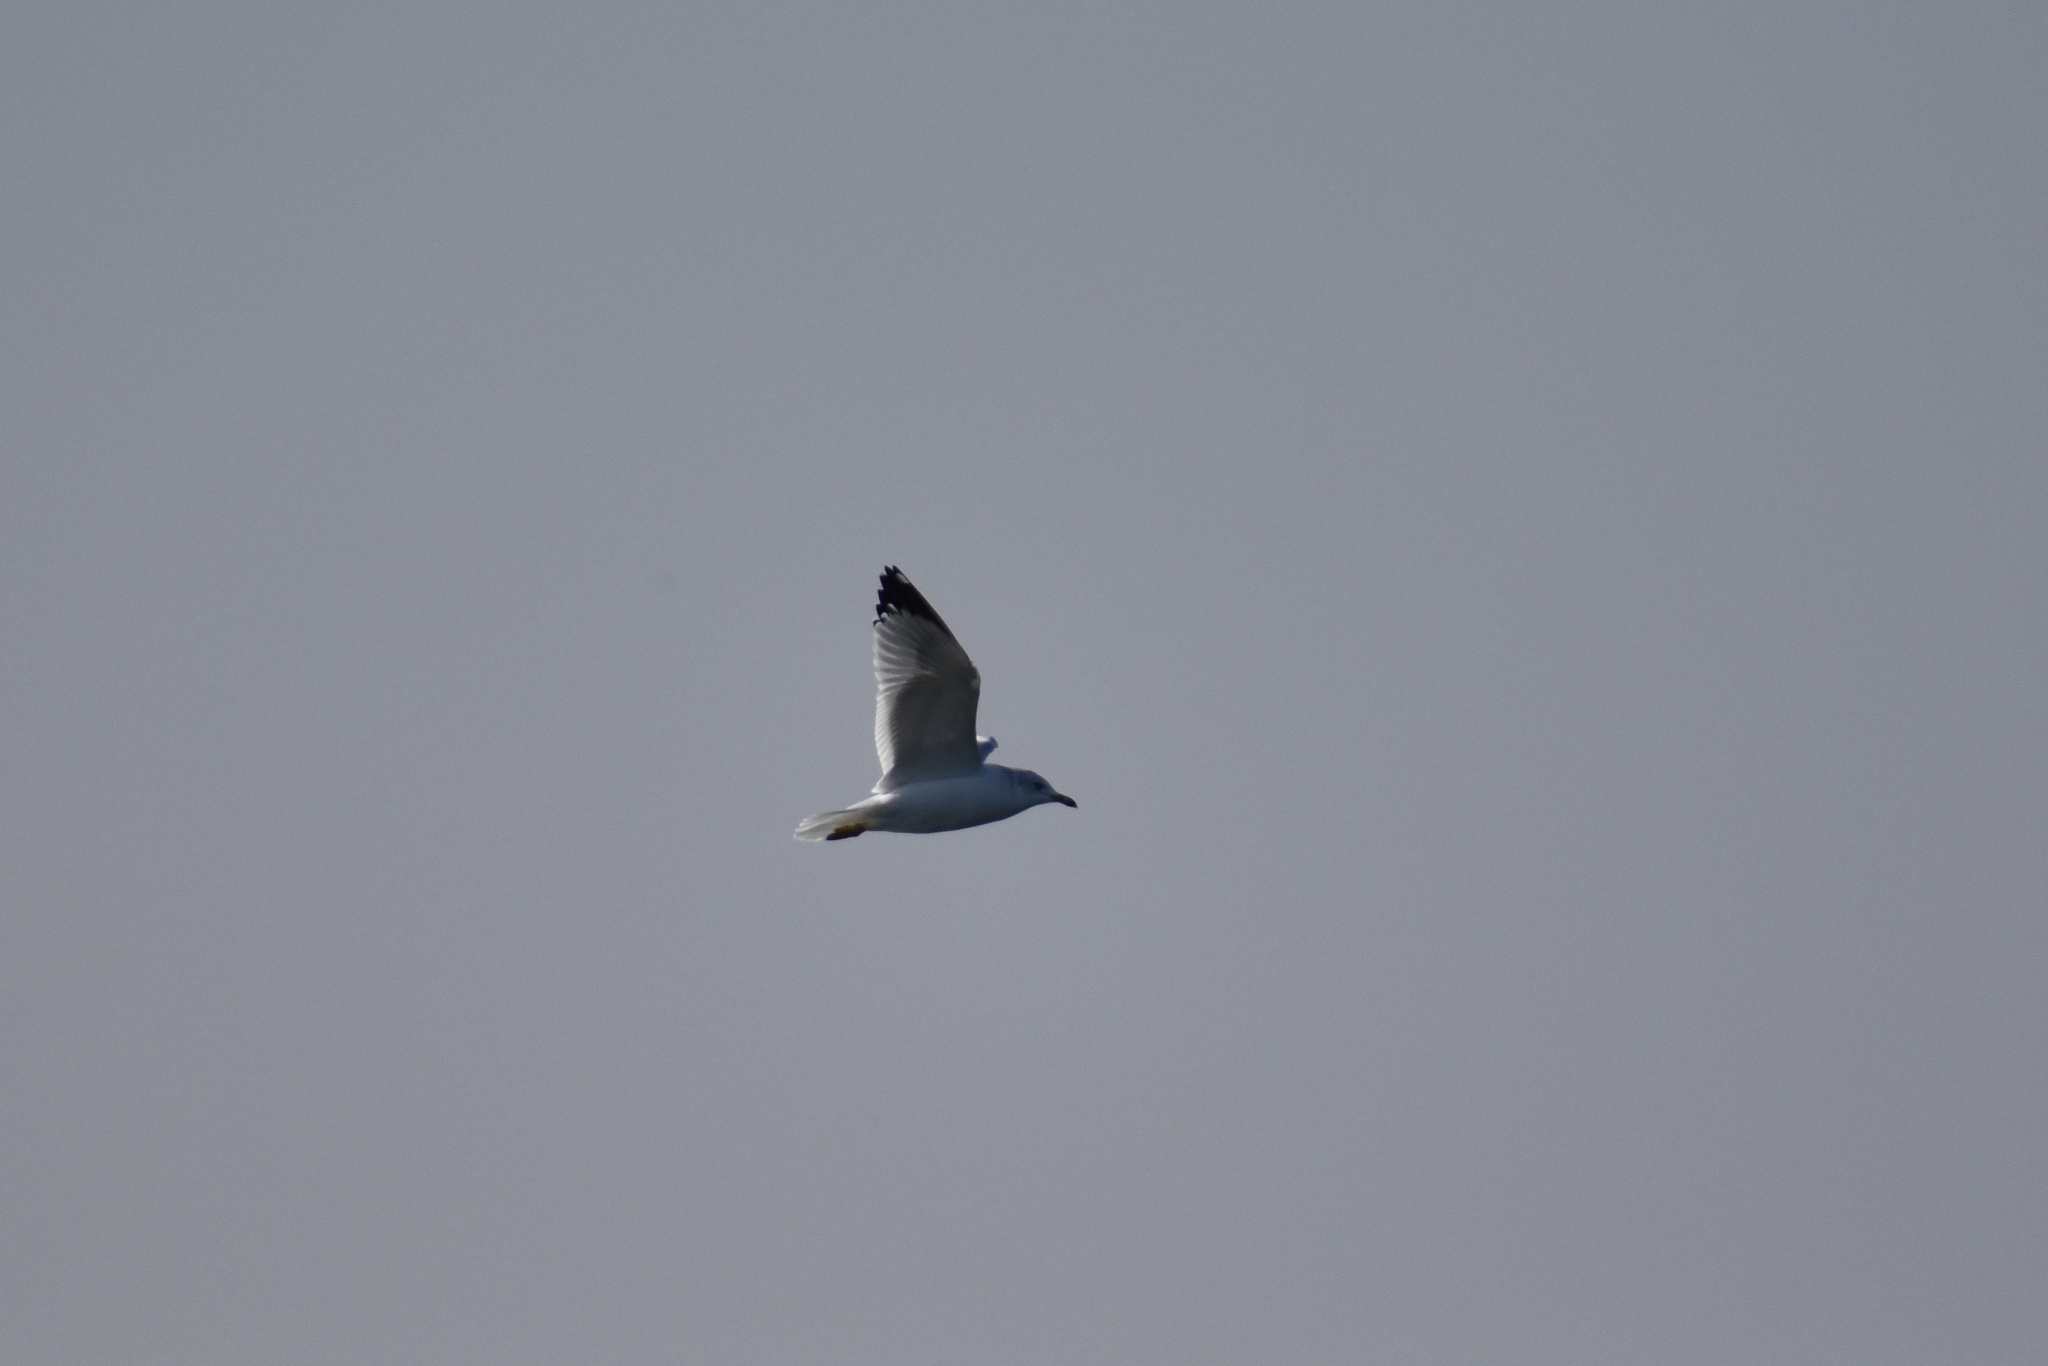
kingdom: Animalia
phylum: Chordata
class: Aves
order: Charadriiformes
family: Laridae
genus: Larus
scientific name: Larus delawarensis
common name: Ring-billed gull
